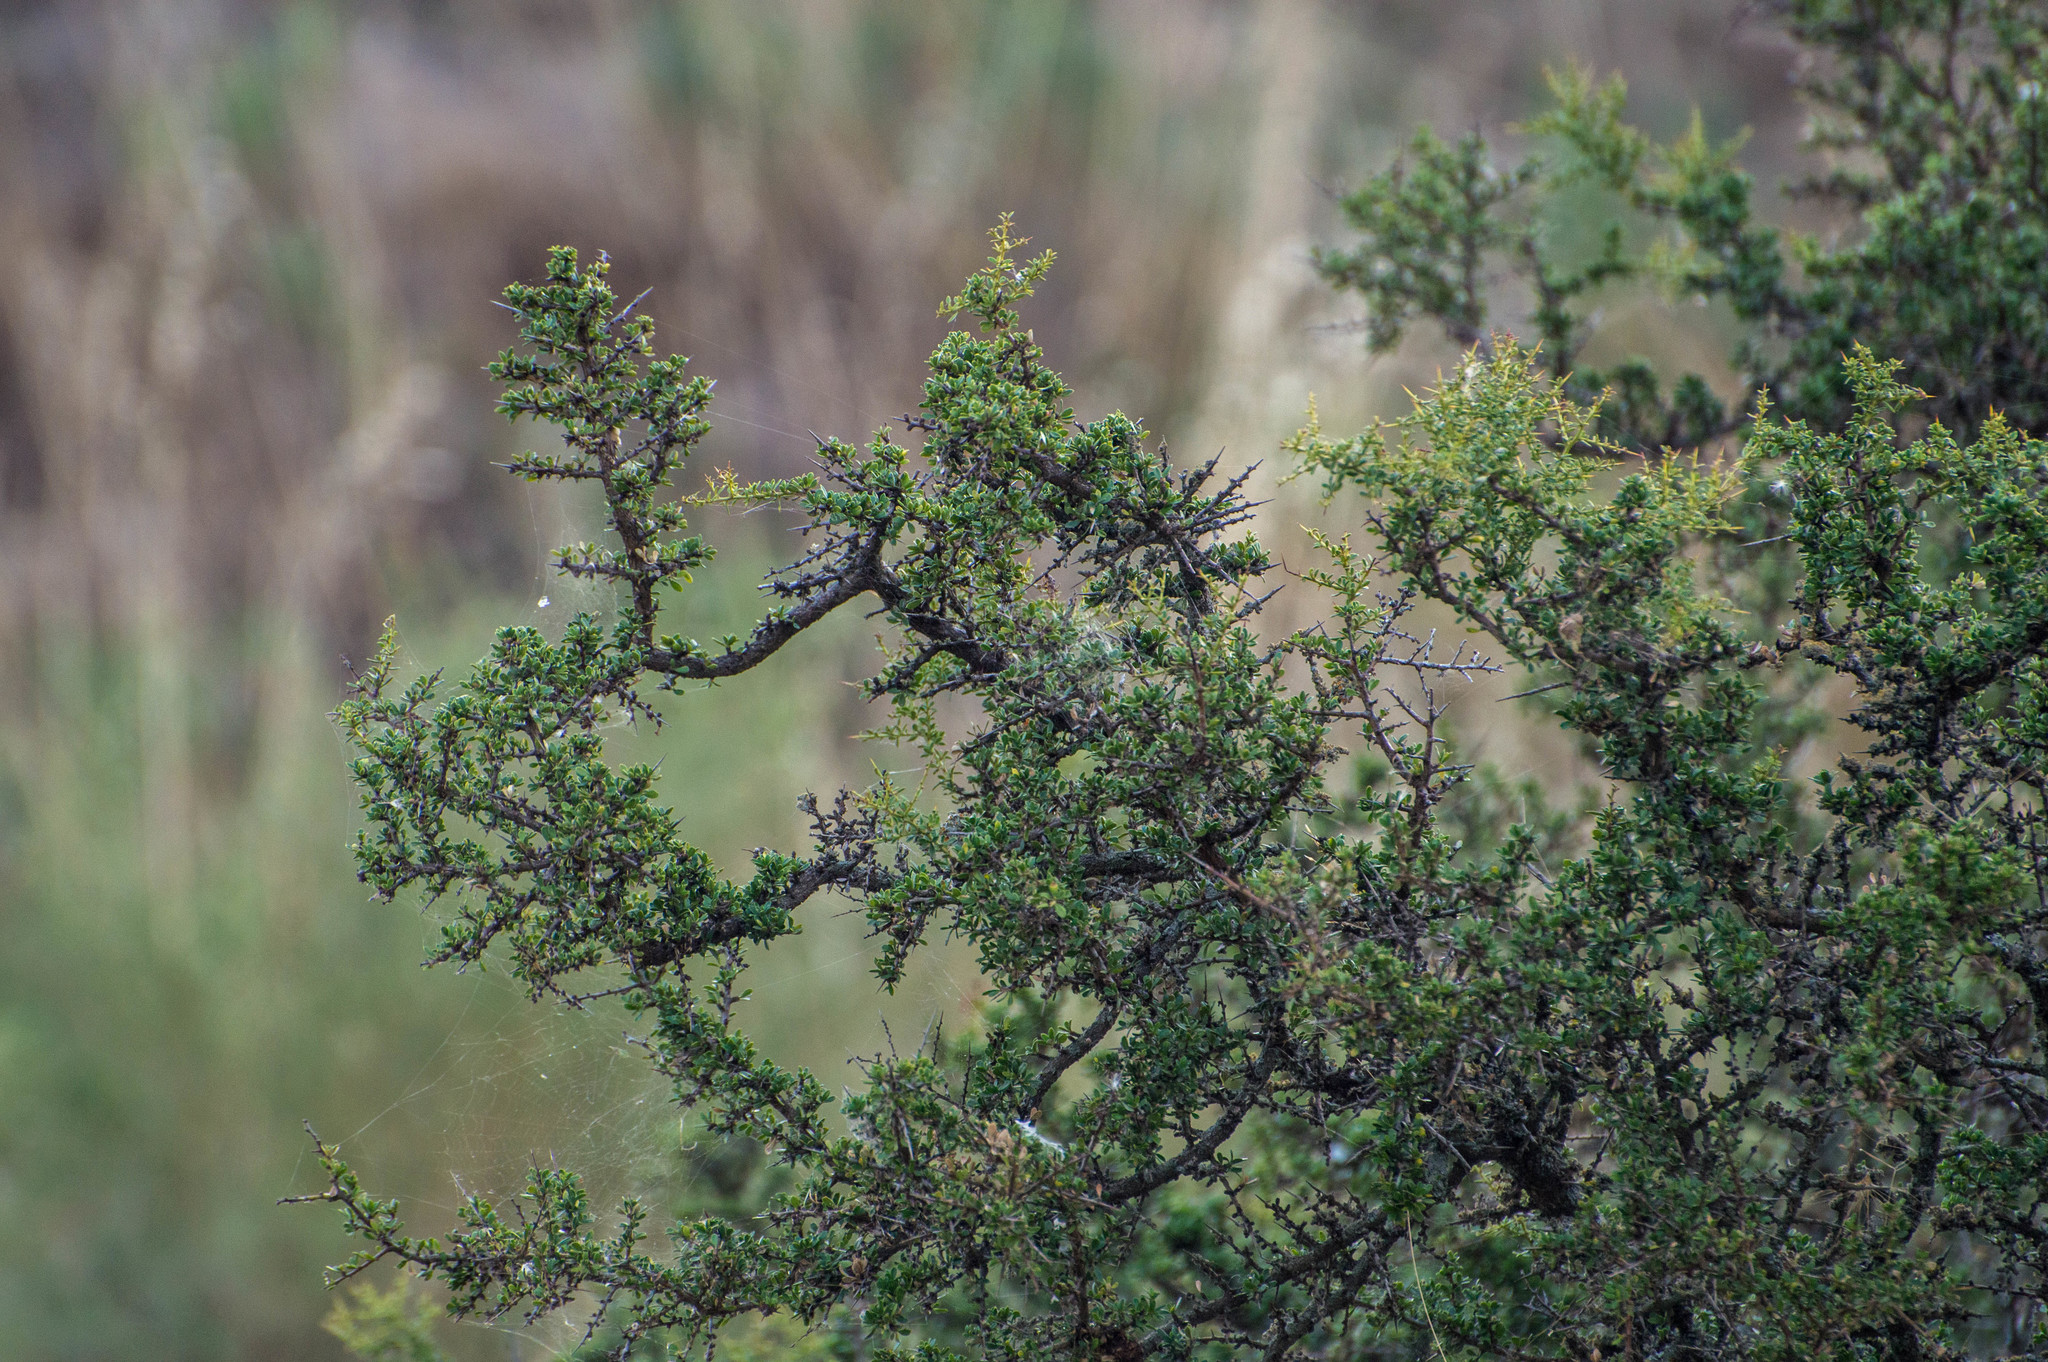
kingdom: Plantae
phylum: Tracheophyta
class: Magnoliopsida
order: Sapindales
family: Anacardiaceae
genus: Schinus
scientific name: Schinus johnstonii
